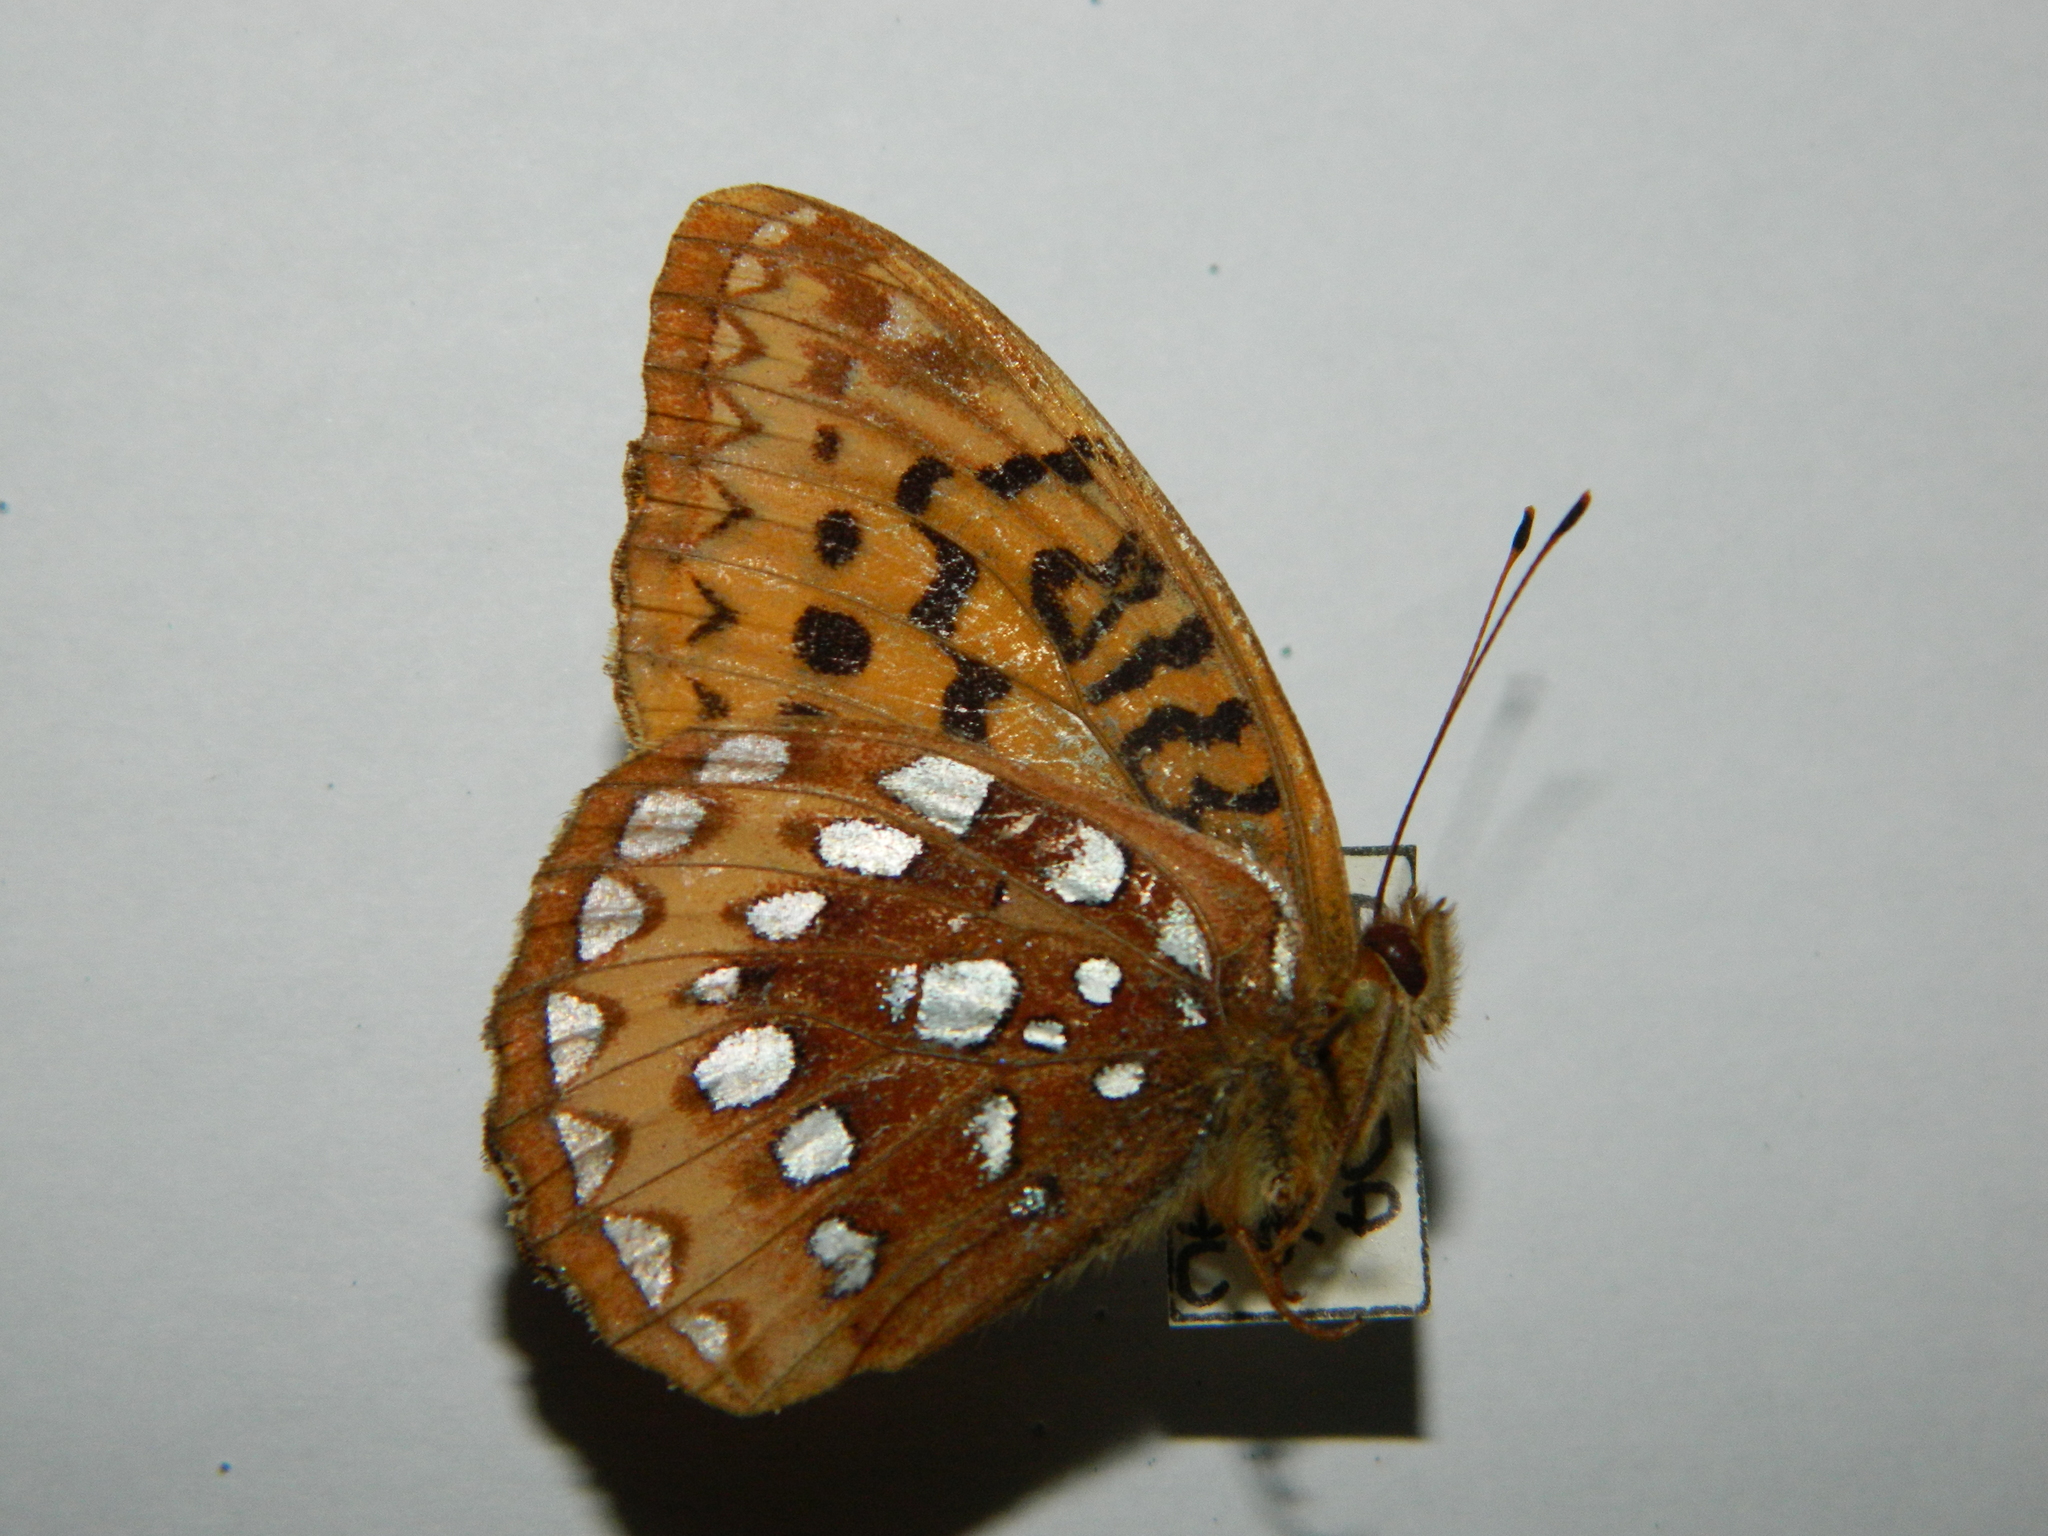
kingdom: Animalia
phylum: Arthropoda
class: Insecta
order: Lepidoptera
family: Nymphalidae
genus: Speyeria
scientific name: Speyeria cybele
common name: Great spangled fritillary
